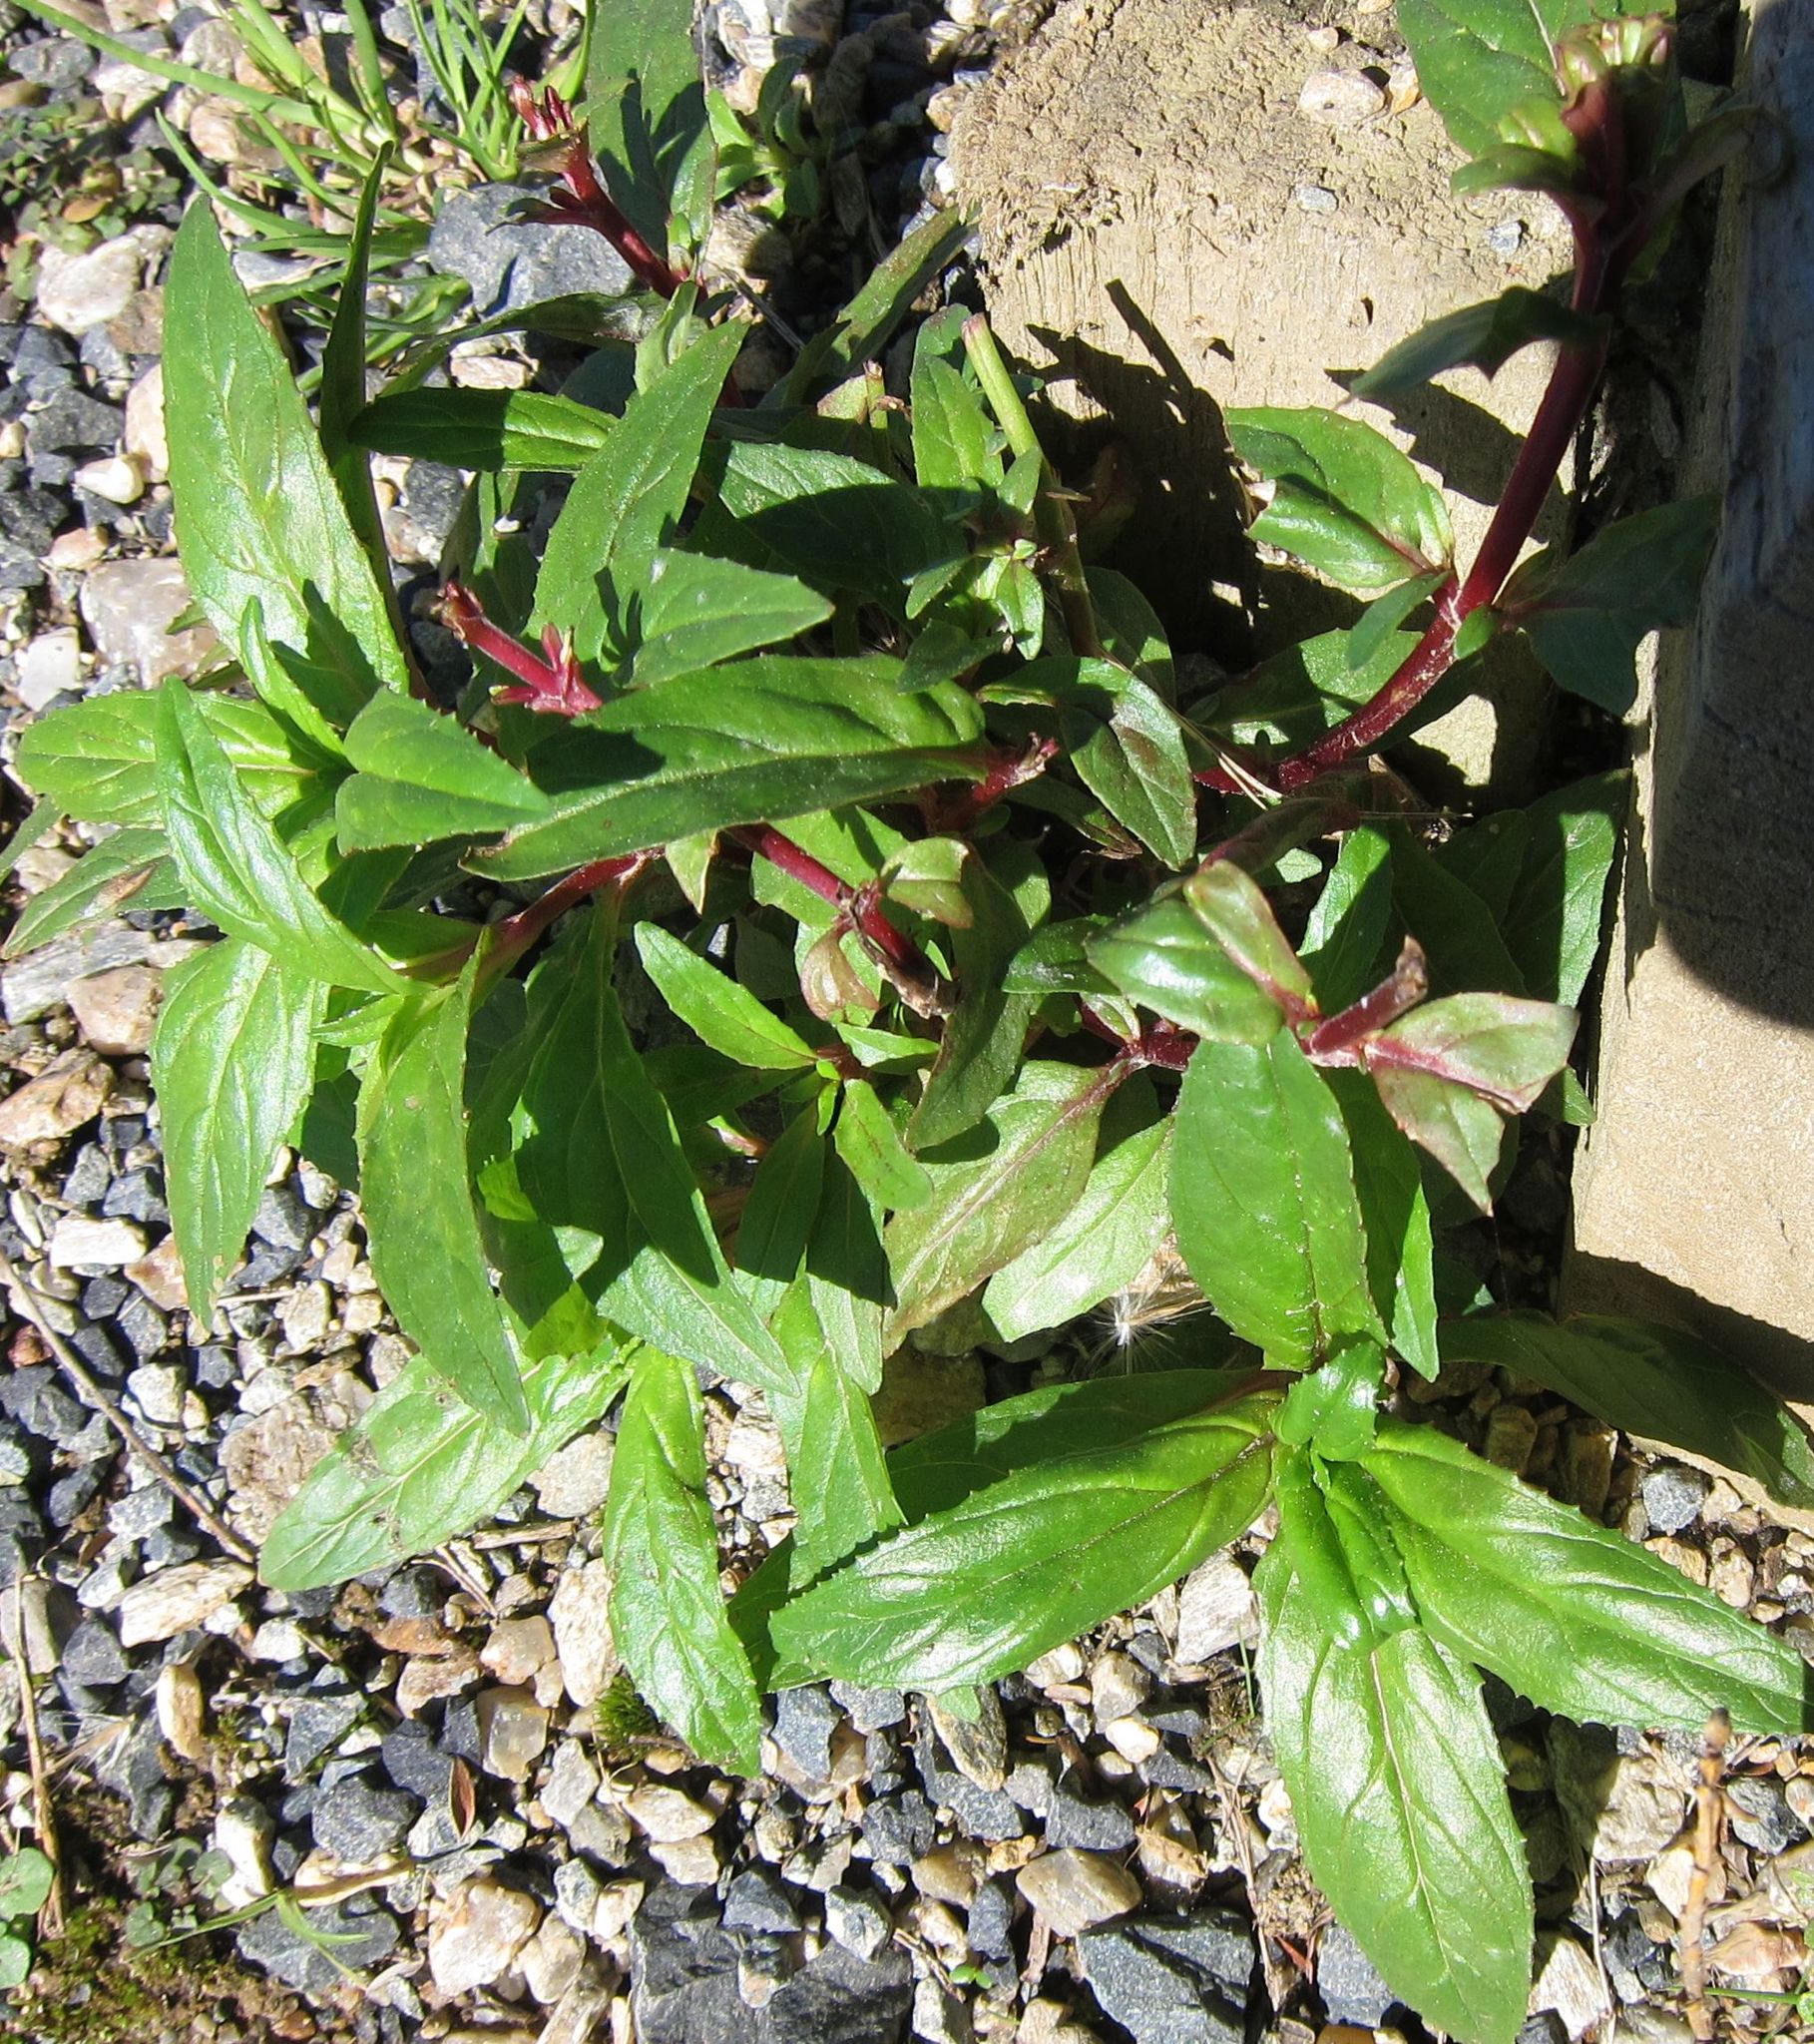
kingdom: Plantae
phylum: Tracheophyta
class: Magnoliopsida
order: Myrtales
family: Onagraceae
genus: Epilobium
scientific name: Epilobium ciliatum
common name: American willowherb
